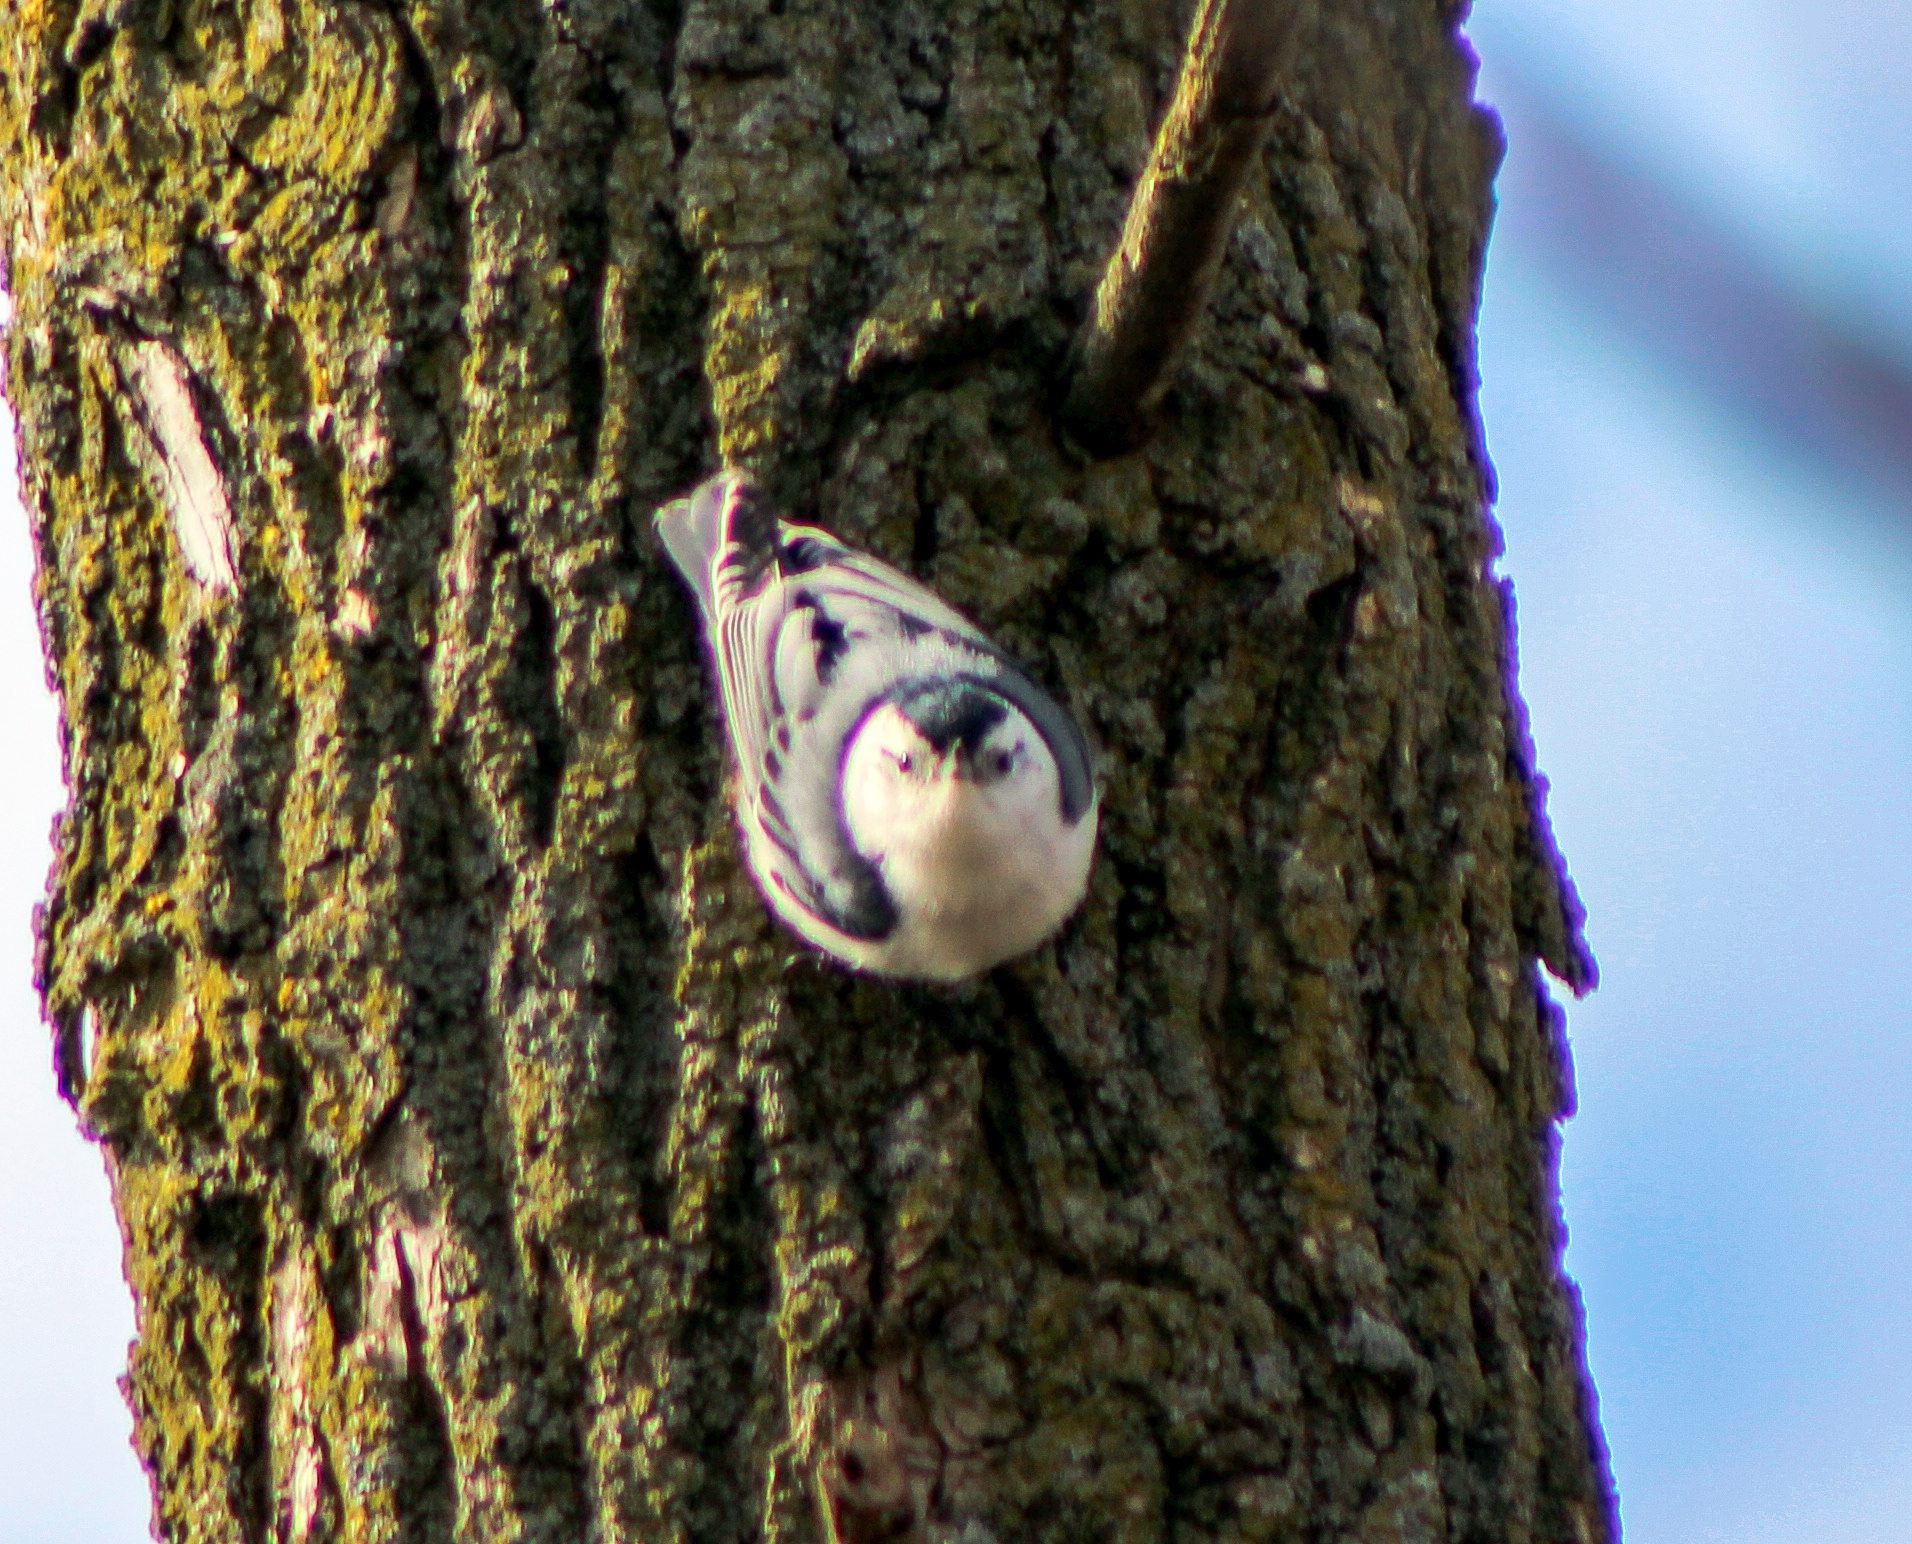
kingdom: Animalia
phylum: Chordata
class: Aves
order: Passeriformes
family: Sittidae
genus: Sitta
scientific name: Sitta carolinensis
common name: White-breasted nuthatch
